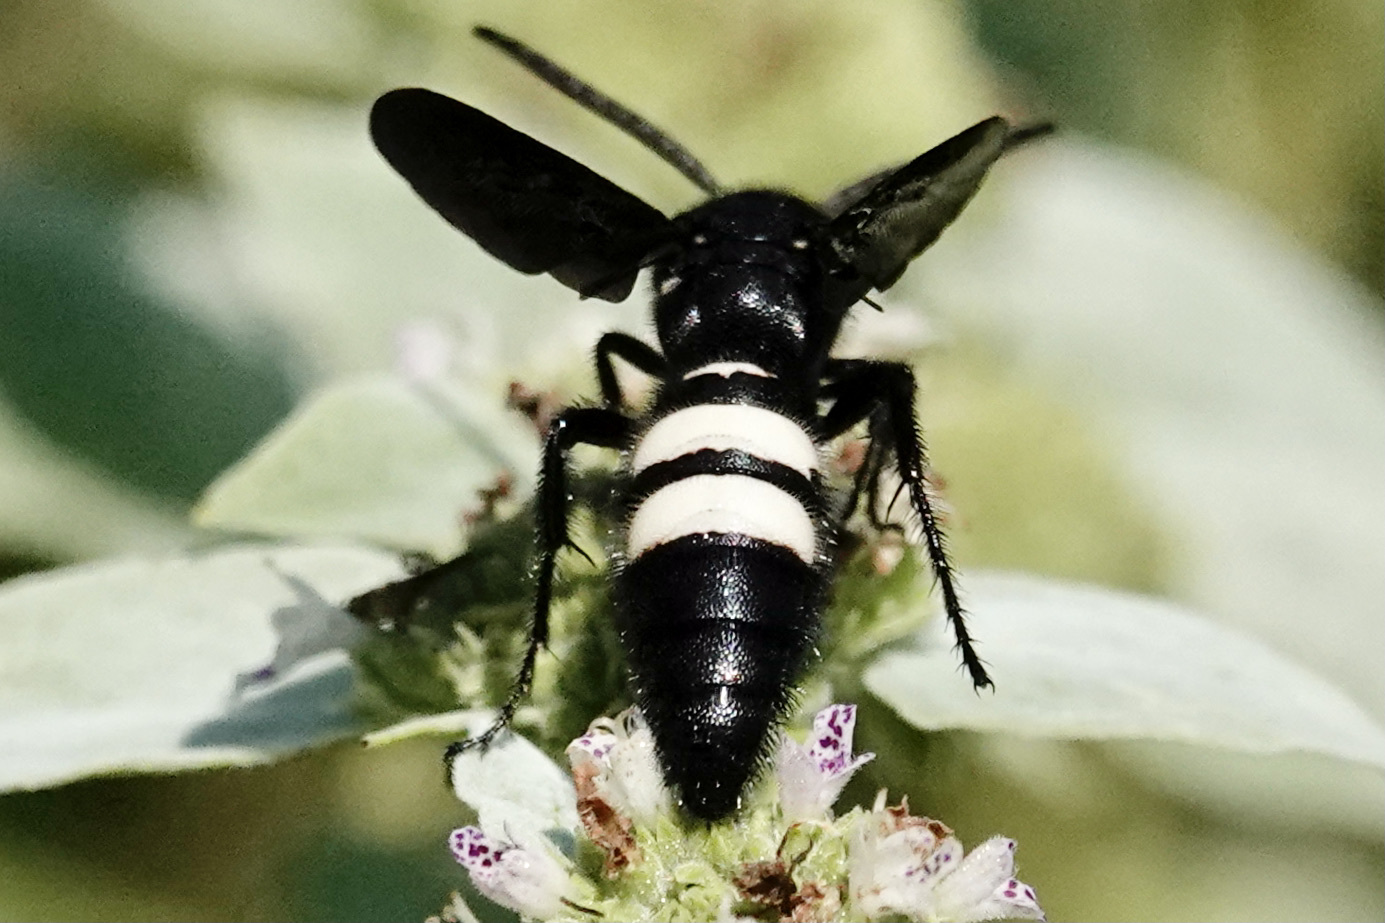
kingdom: Animalia
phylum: Arthropoda
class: Insecta
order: Hymenoptera
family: Scoliidae
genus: Scolia
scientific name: Scolia bicincta
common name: Double-banded scoliid wasp
